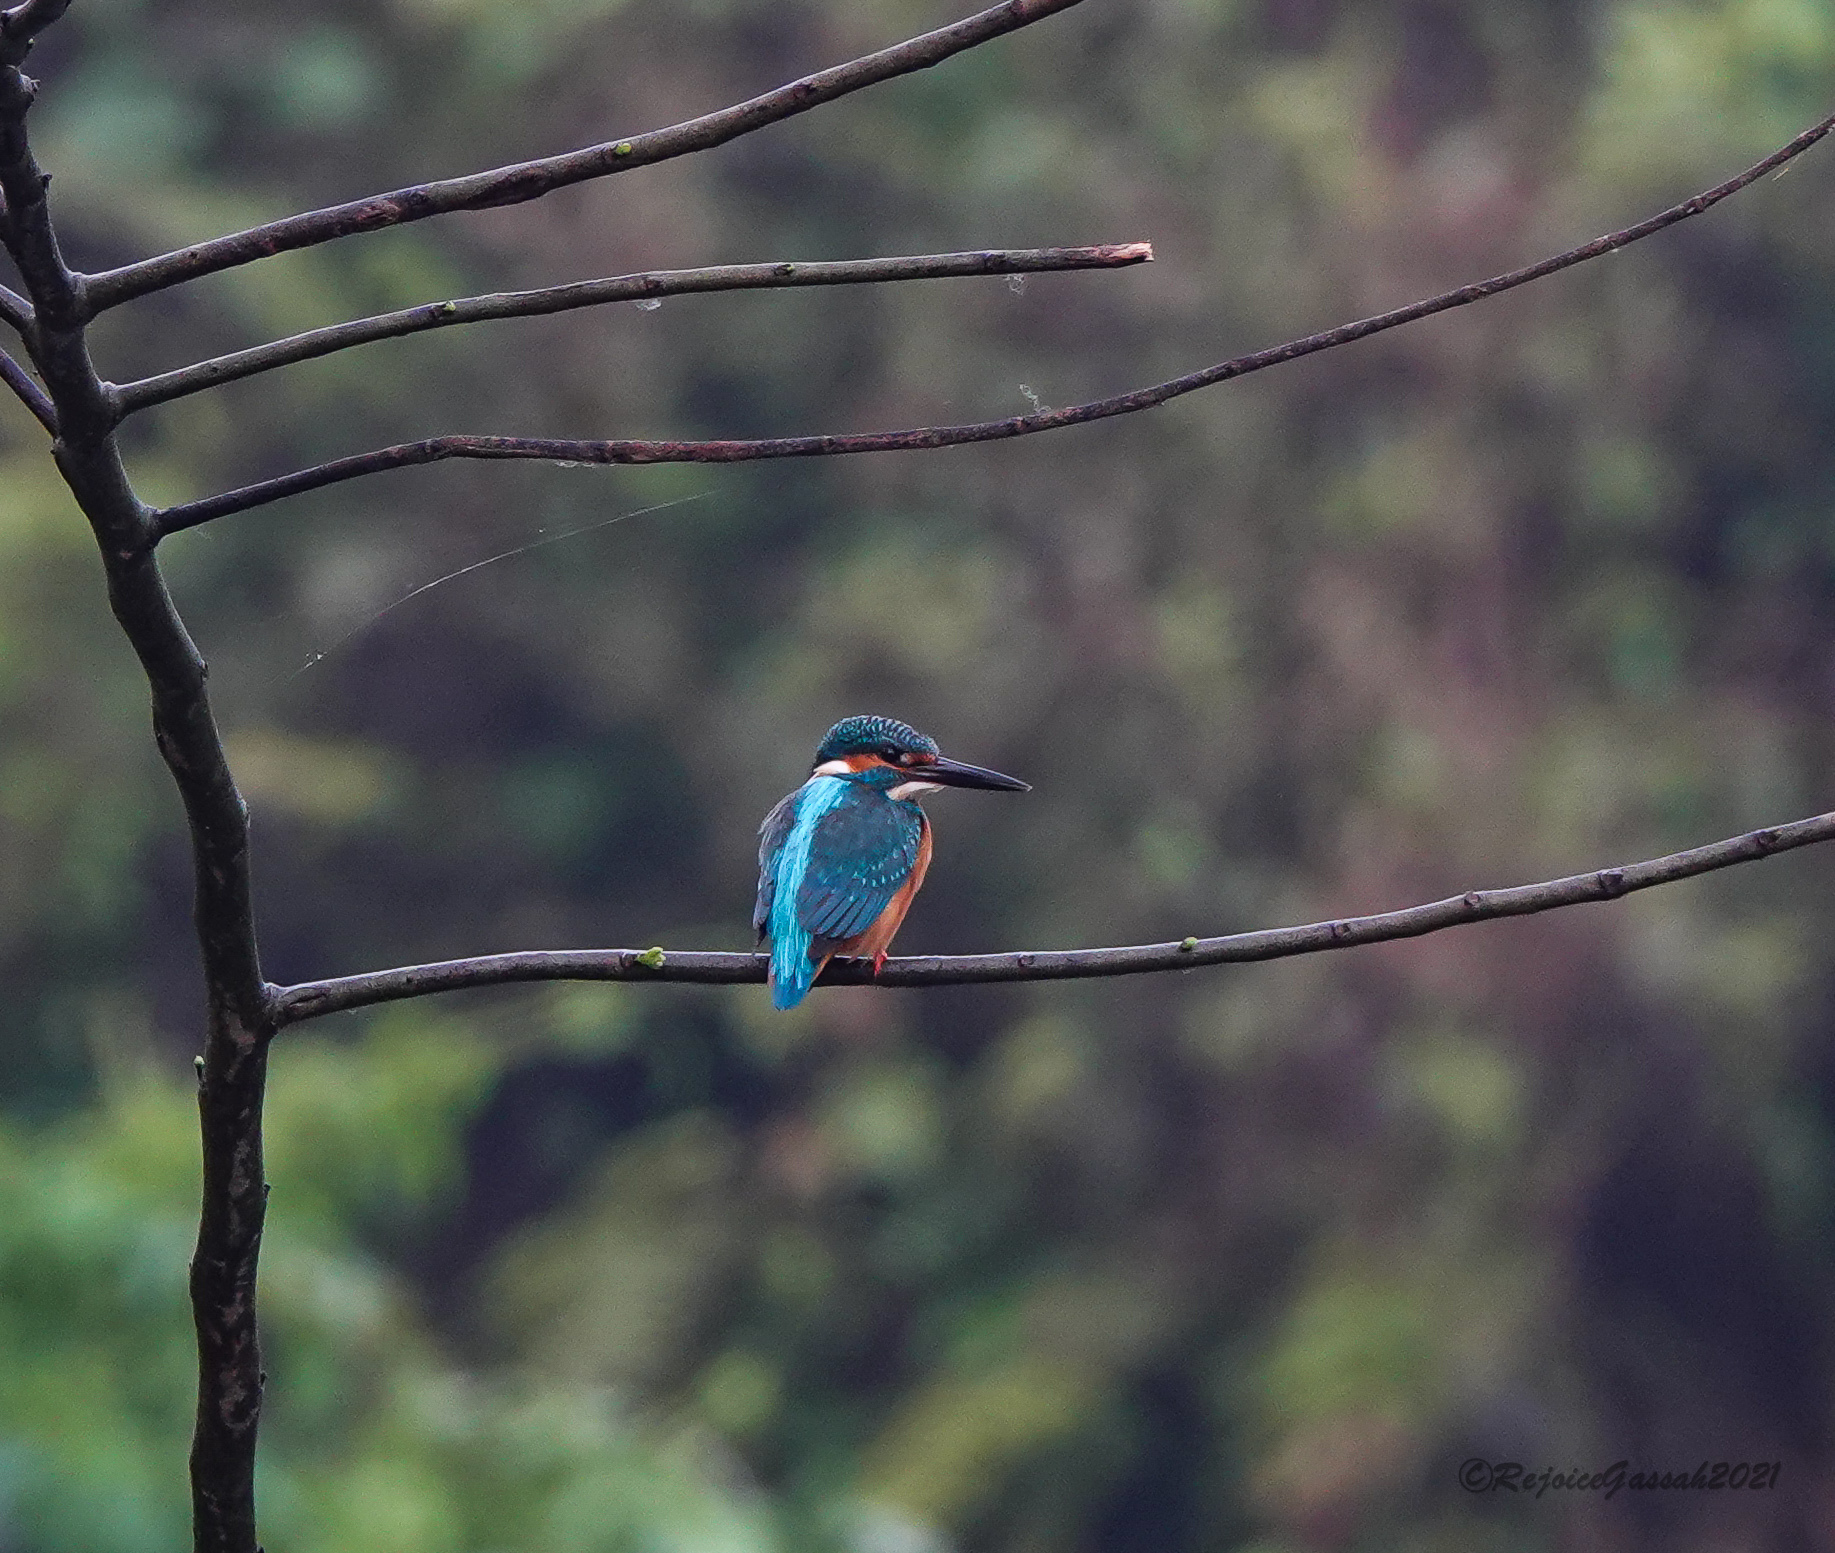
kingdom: Animalia
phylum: Chordata
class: Aves
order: Coraciiformes
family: Alcedinidae
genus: Alcedo
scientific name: Alcedo atthis
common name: Common kingfisher
